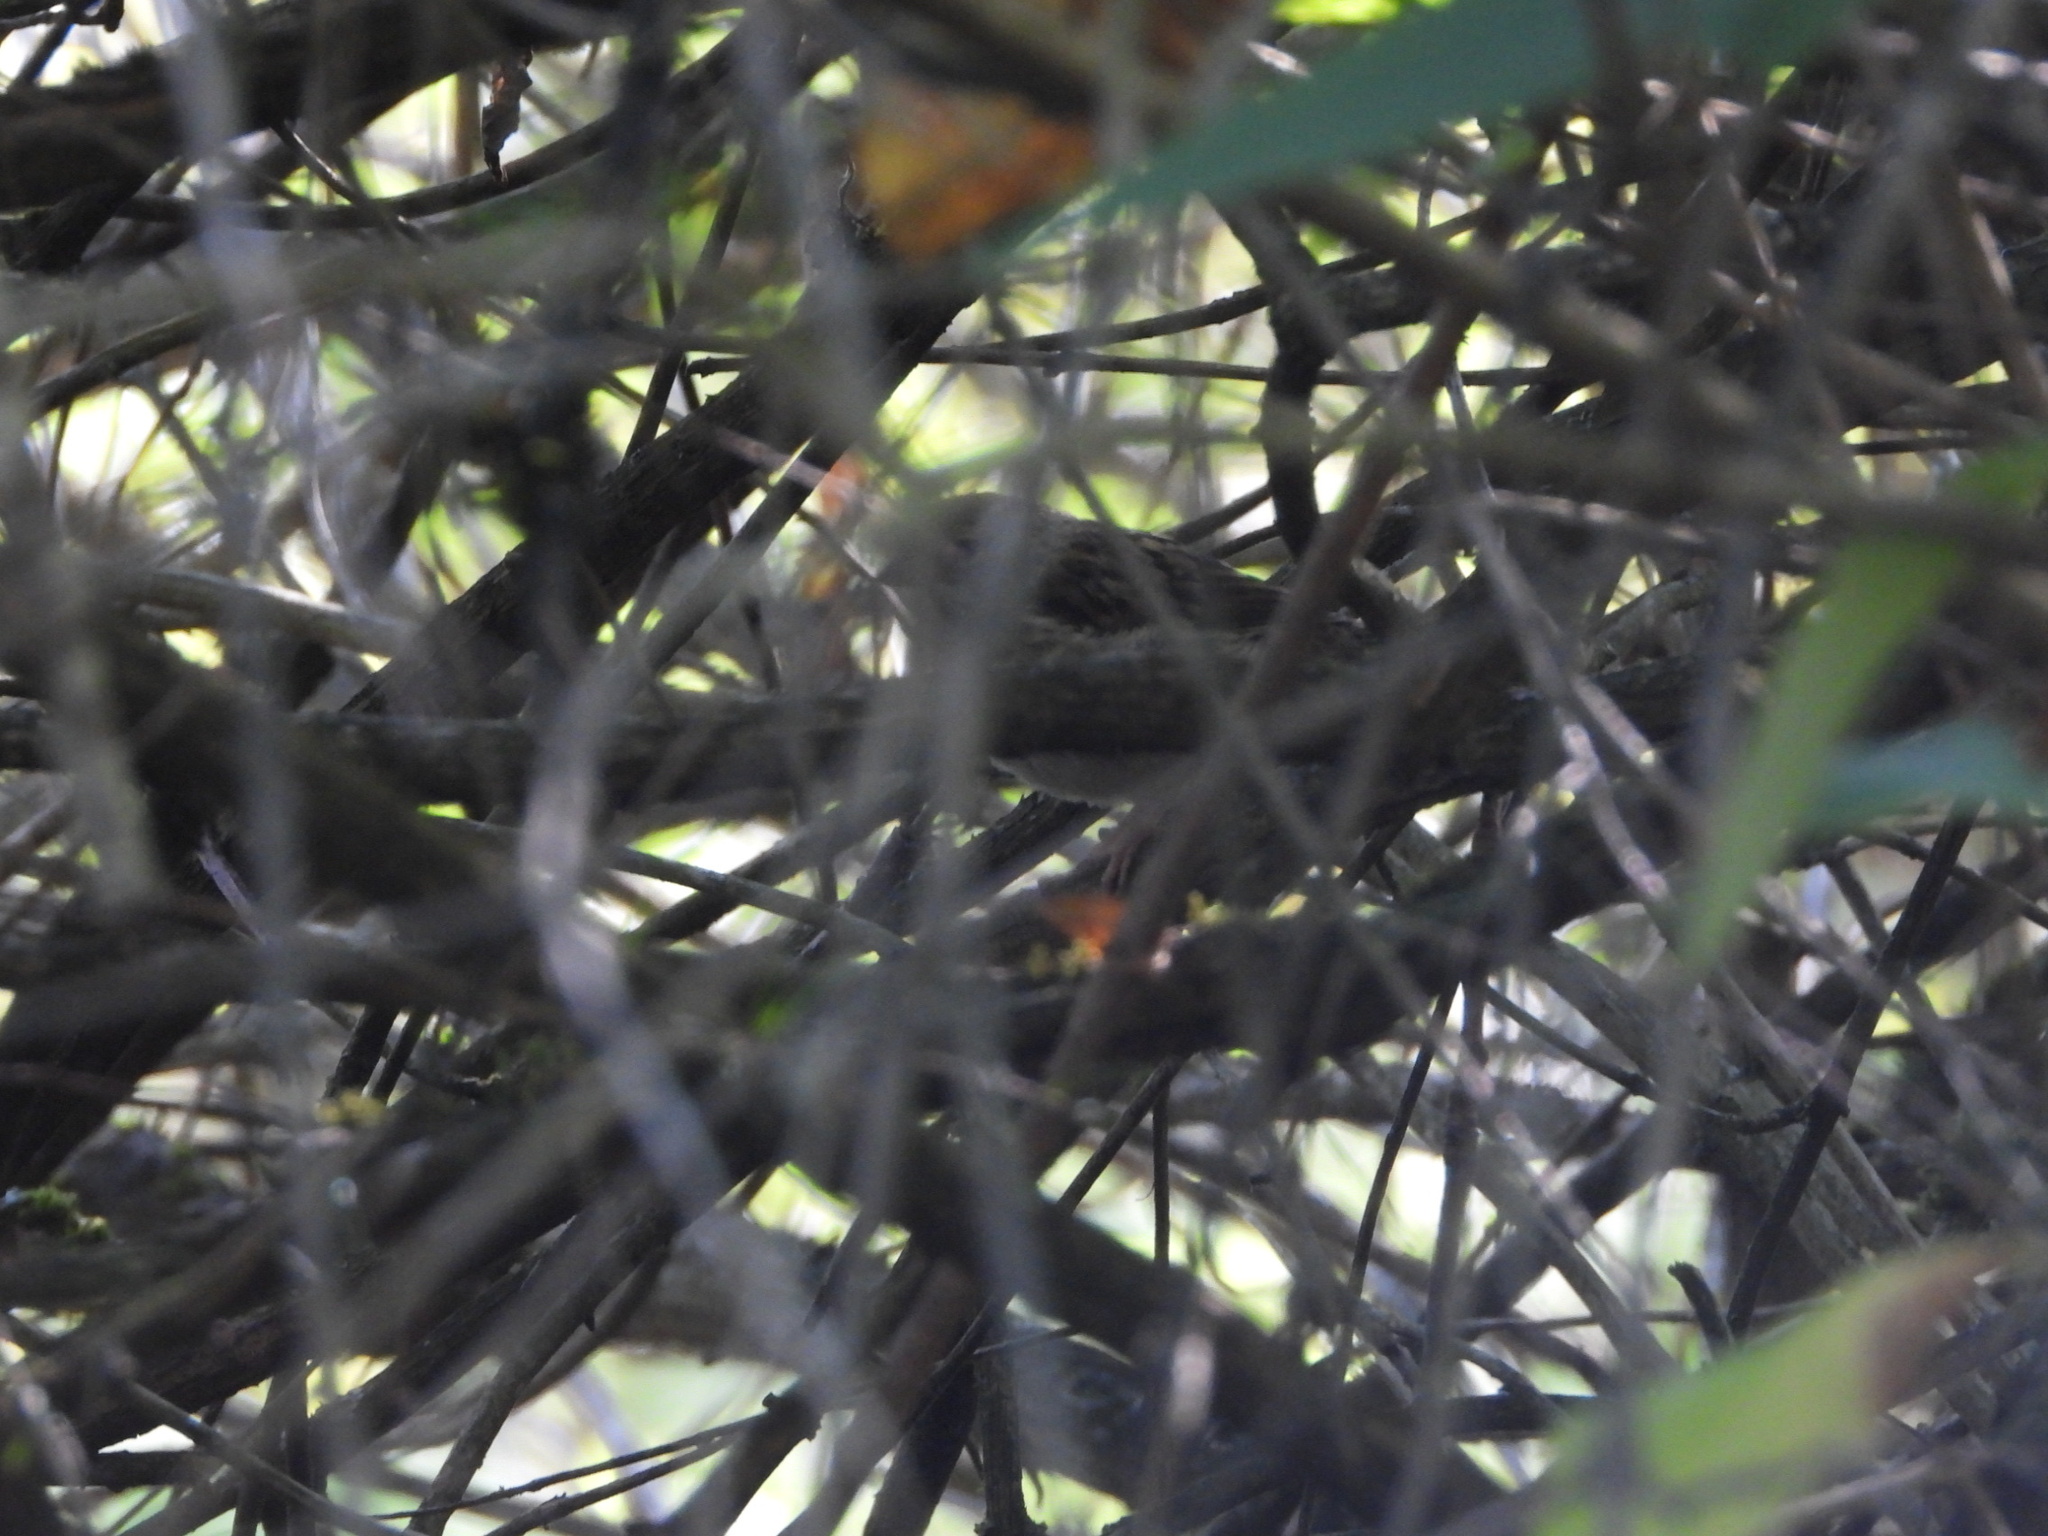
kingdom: Animalia
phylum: Chordata
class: Aves
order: Passeriformes
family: Passerellidae
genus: Zonotrichia
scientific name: Zonotrichia leucophrys
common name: White-crowned sparrow
